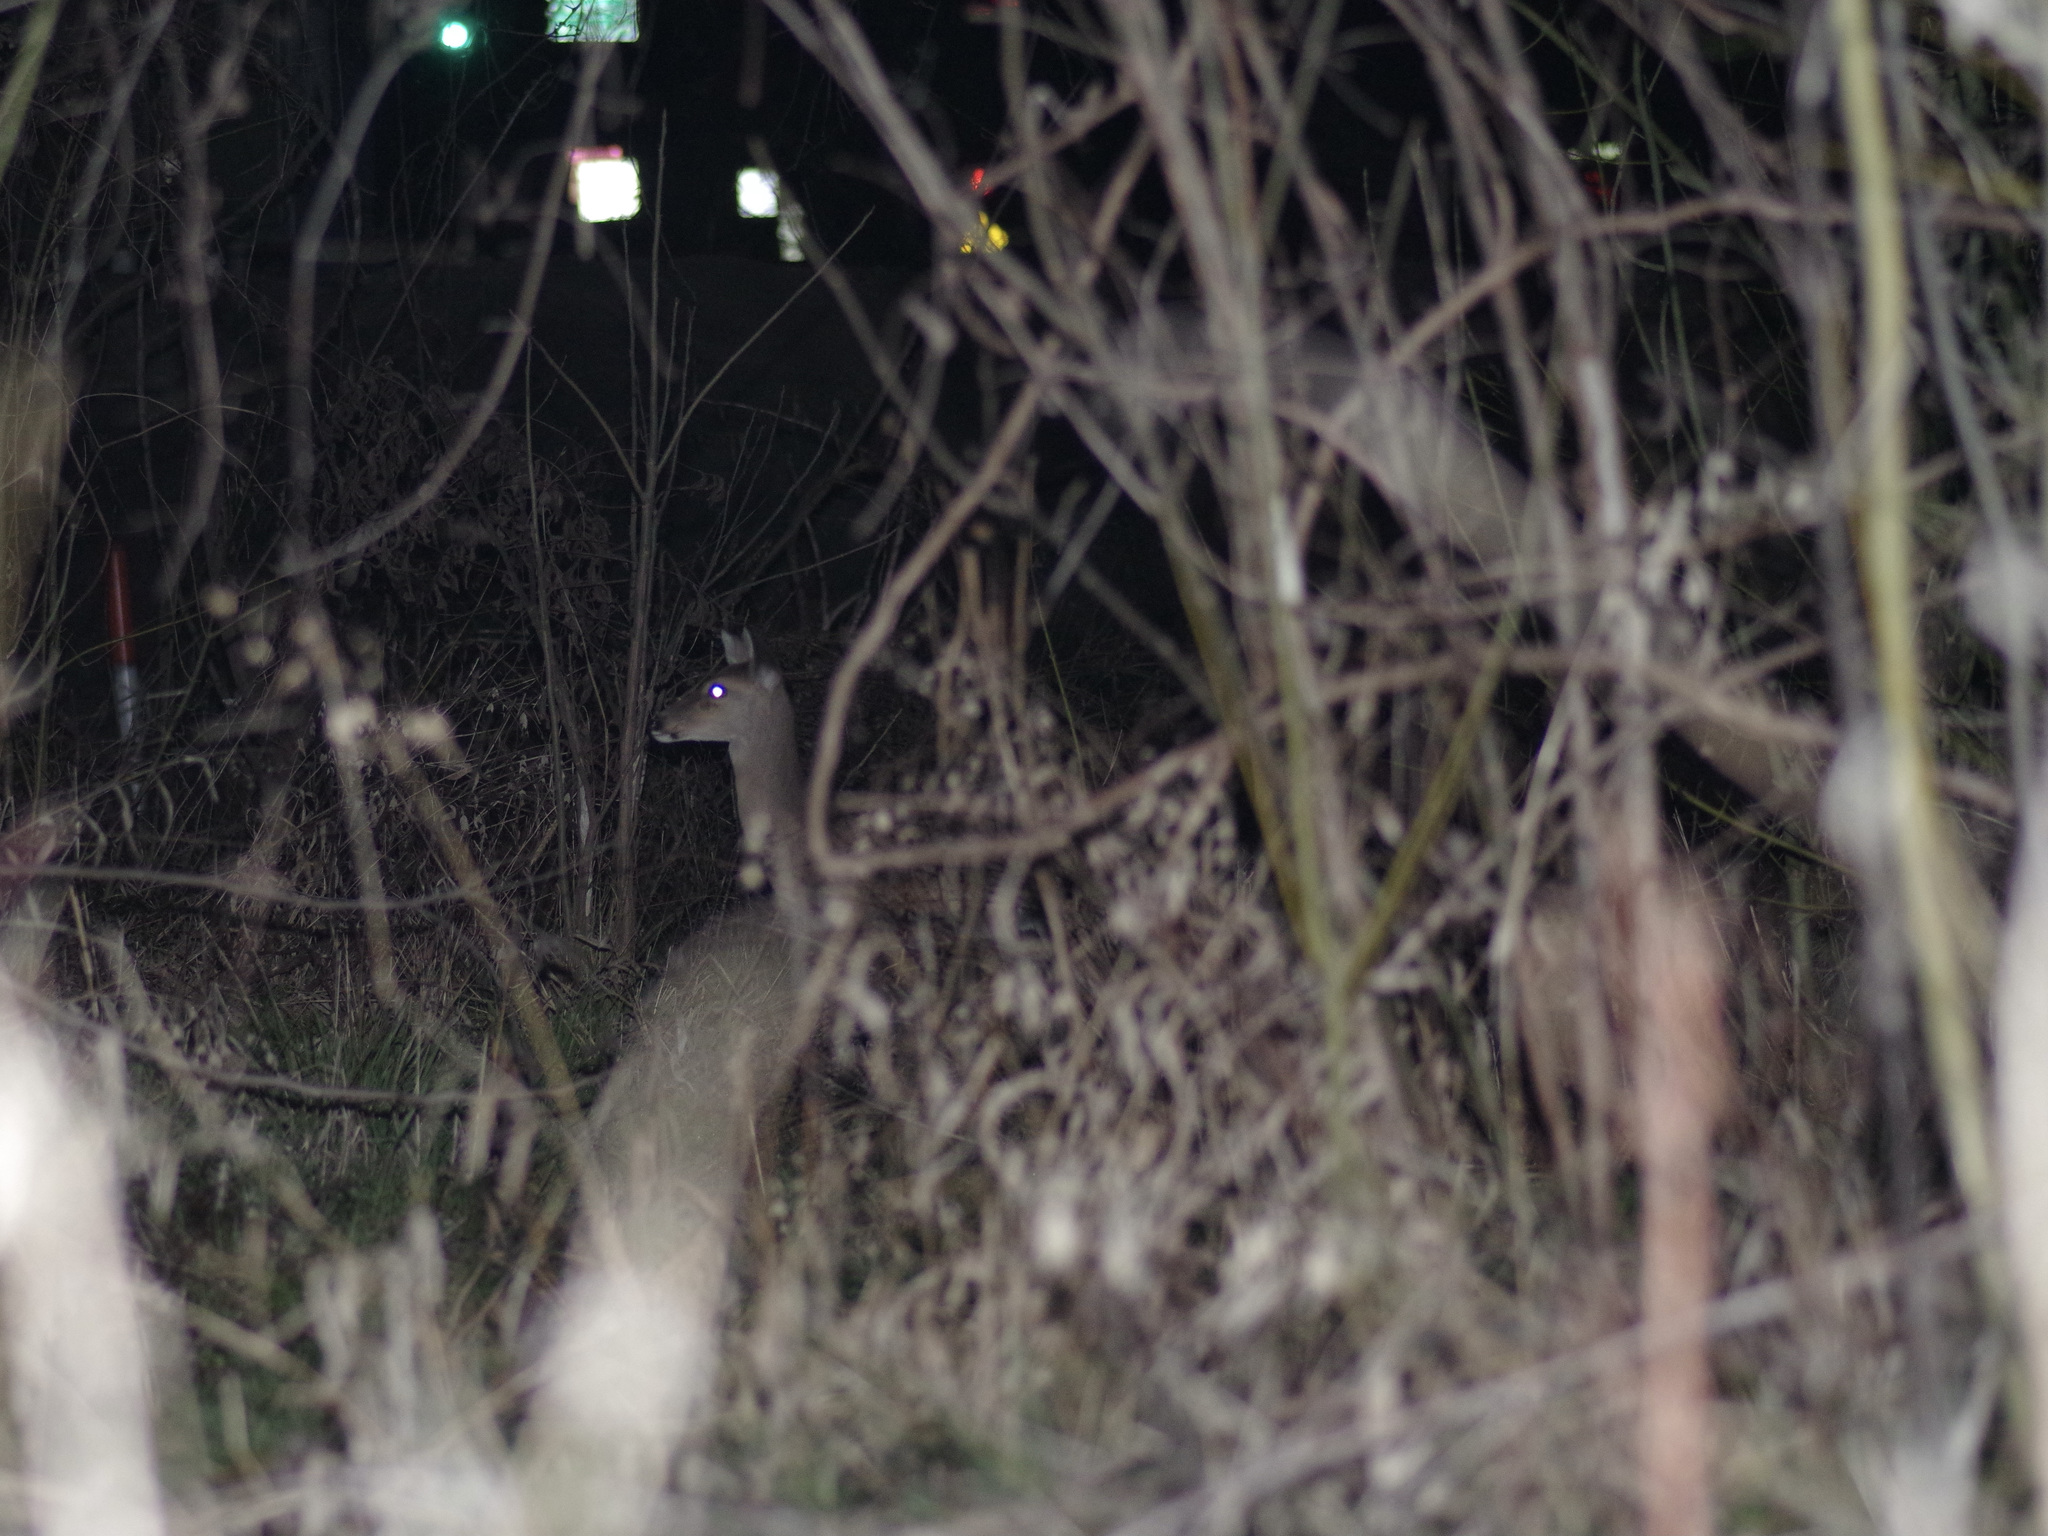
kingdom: Animalia
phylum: Chordata
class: Mammalia
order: Artiodactyla
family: Cervidae
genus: Odocoileus
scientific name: Odocoileus virginianus
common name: White-tailed deer
